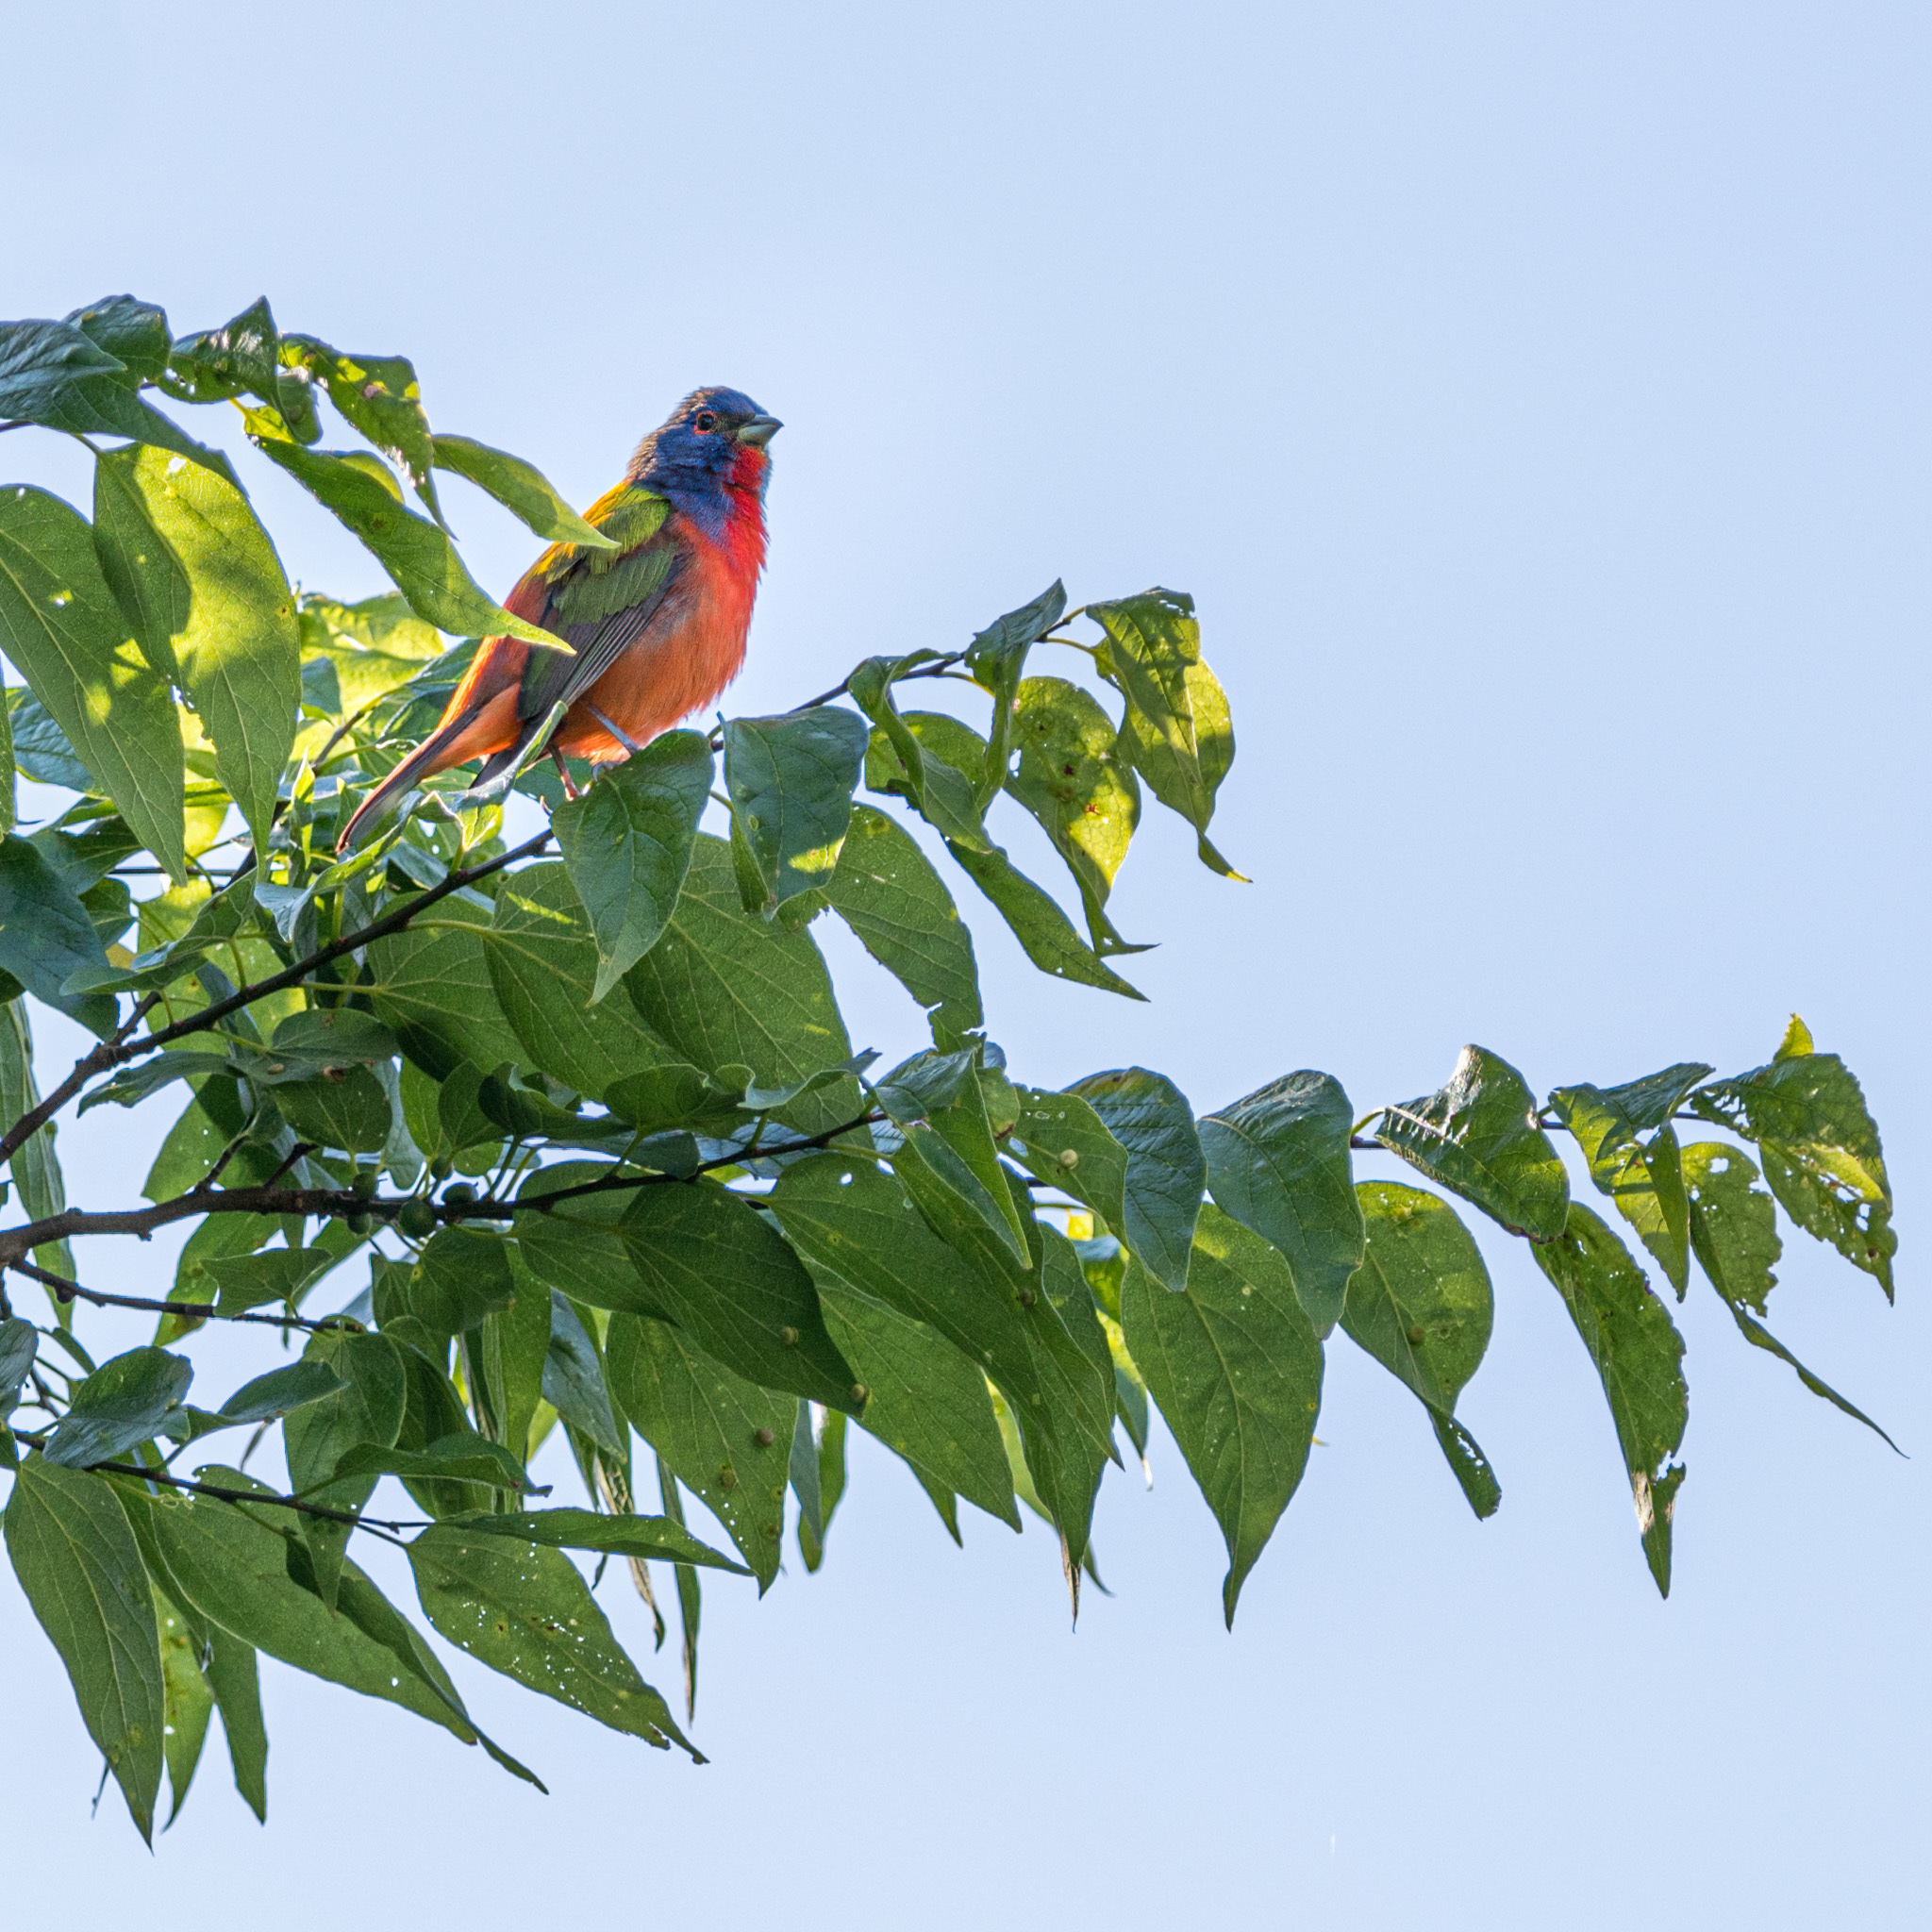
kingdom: Animalia
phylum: Chordata
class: Aves
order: Passeriformes
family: Cardinalidae
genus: Passerina
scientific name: Passerina ciris
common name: Painted bunting
